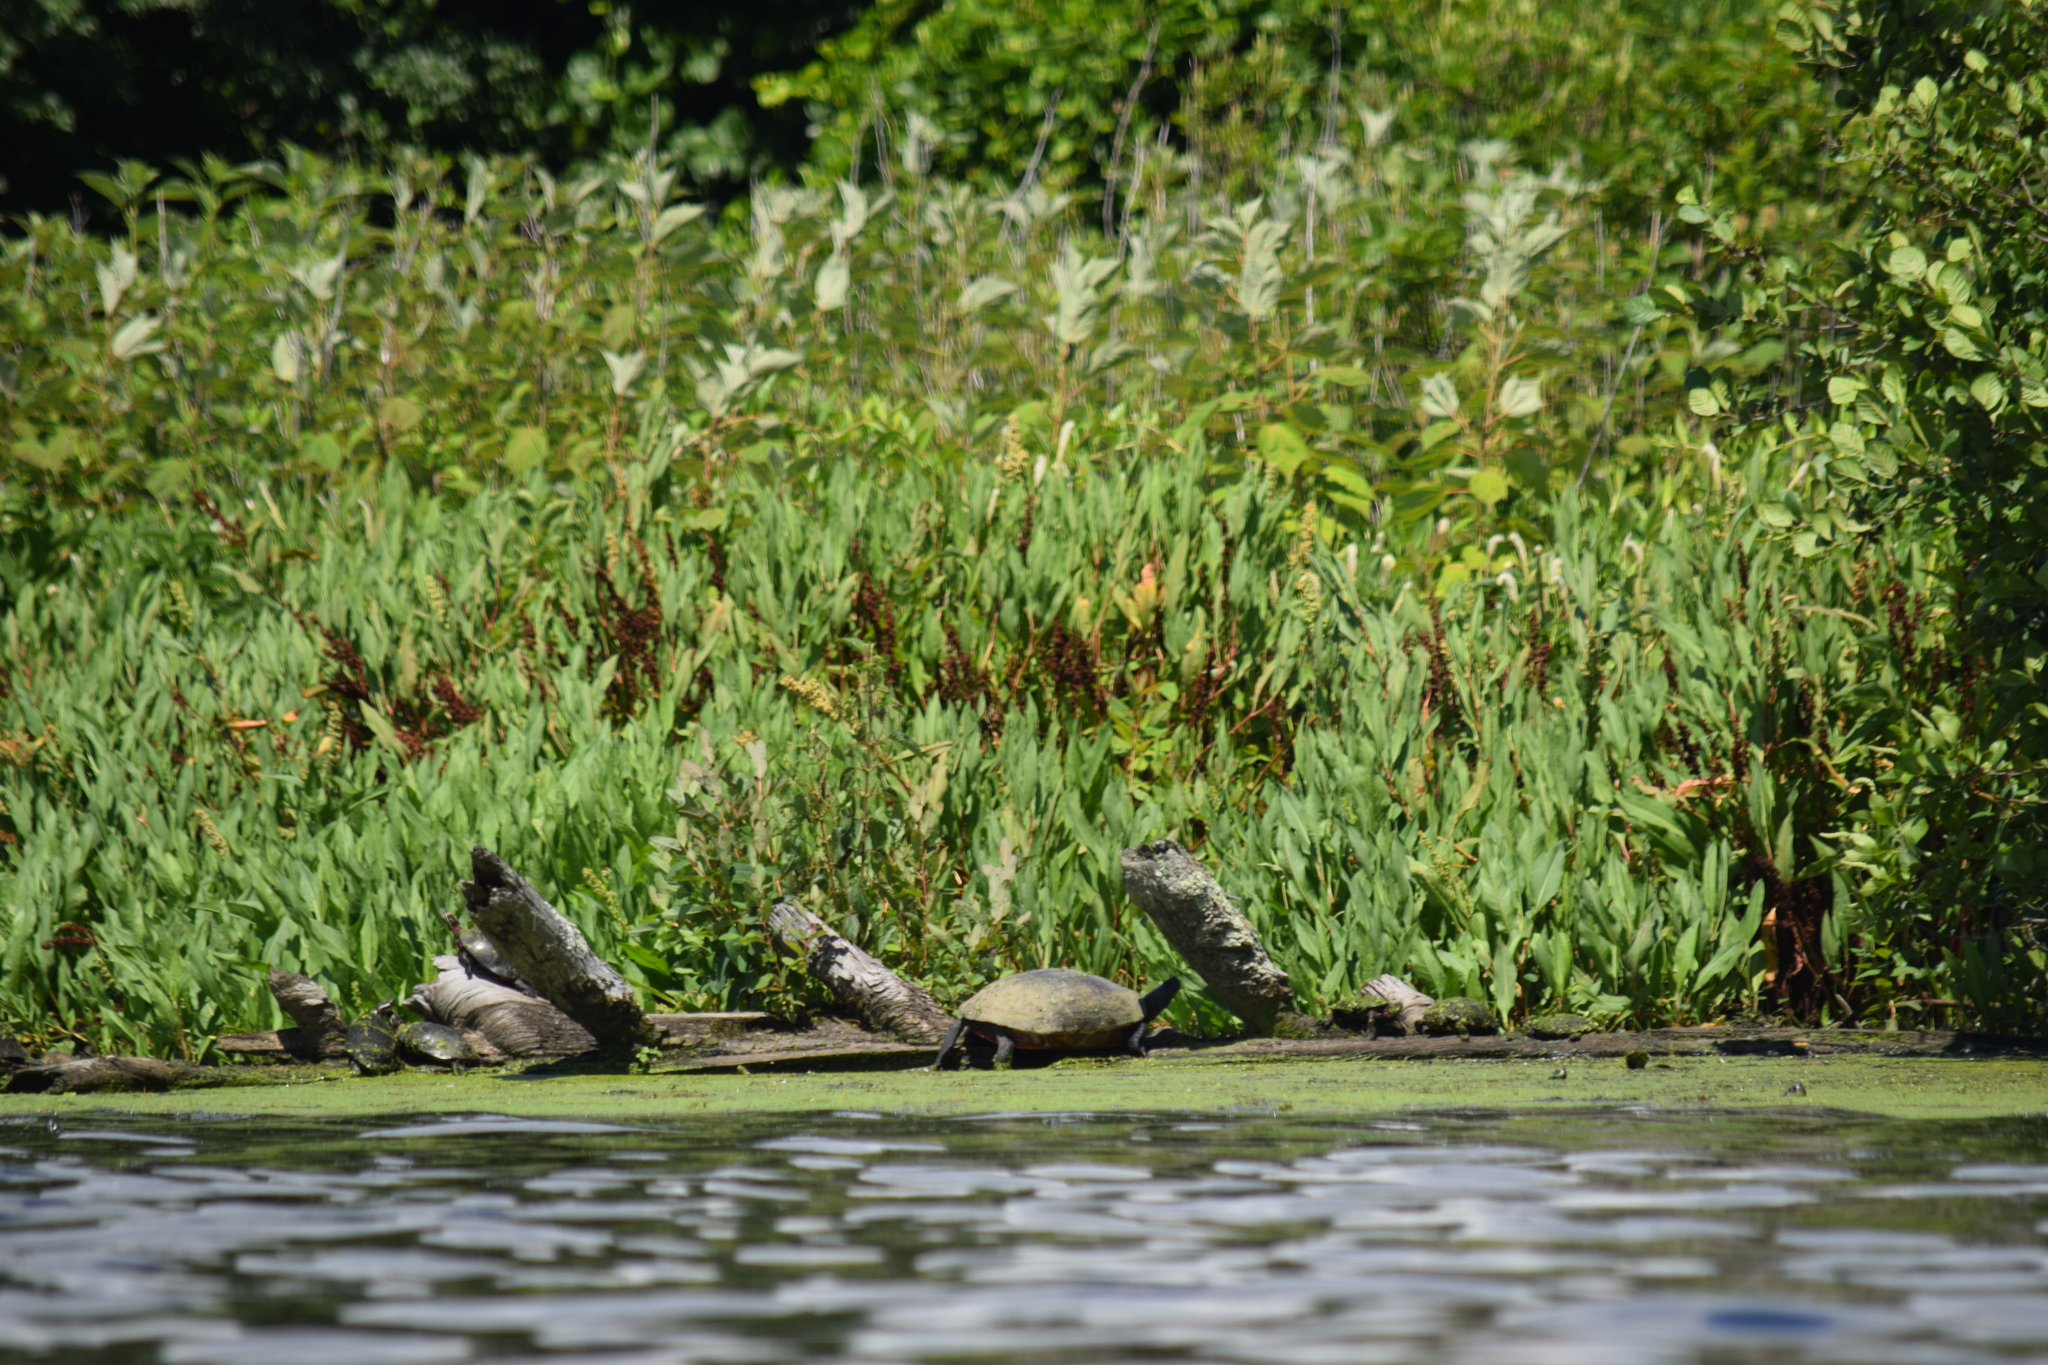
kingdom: Animalia
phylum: Chordata
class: Testudines
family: Emydidae
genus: Pseudemys
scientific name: Pseudemys rubriventris
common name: American red-bellied turtle
